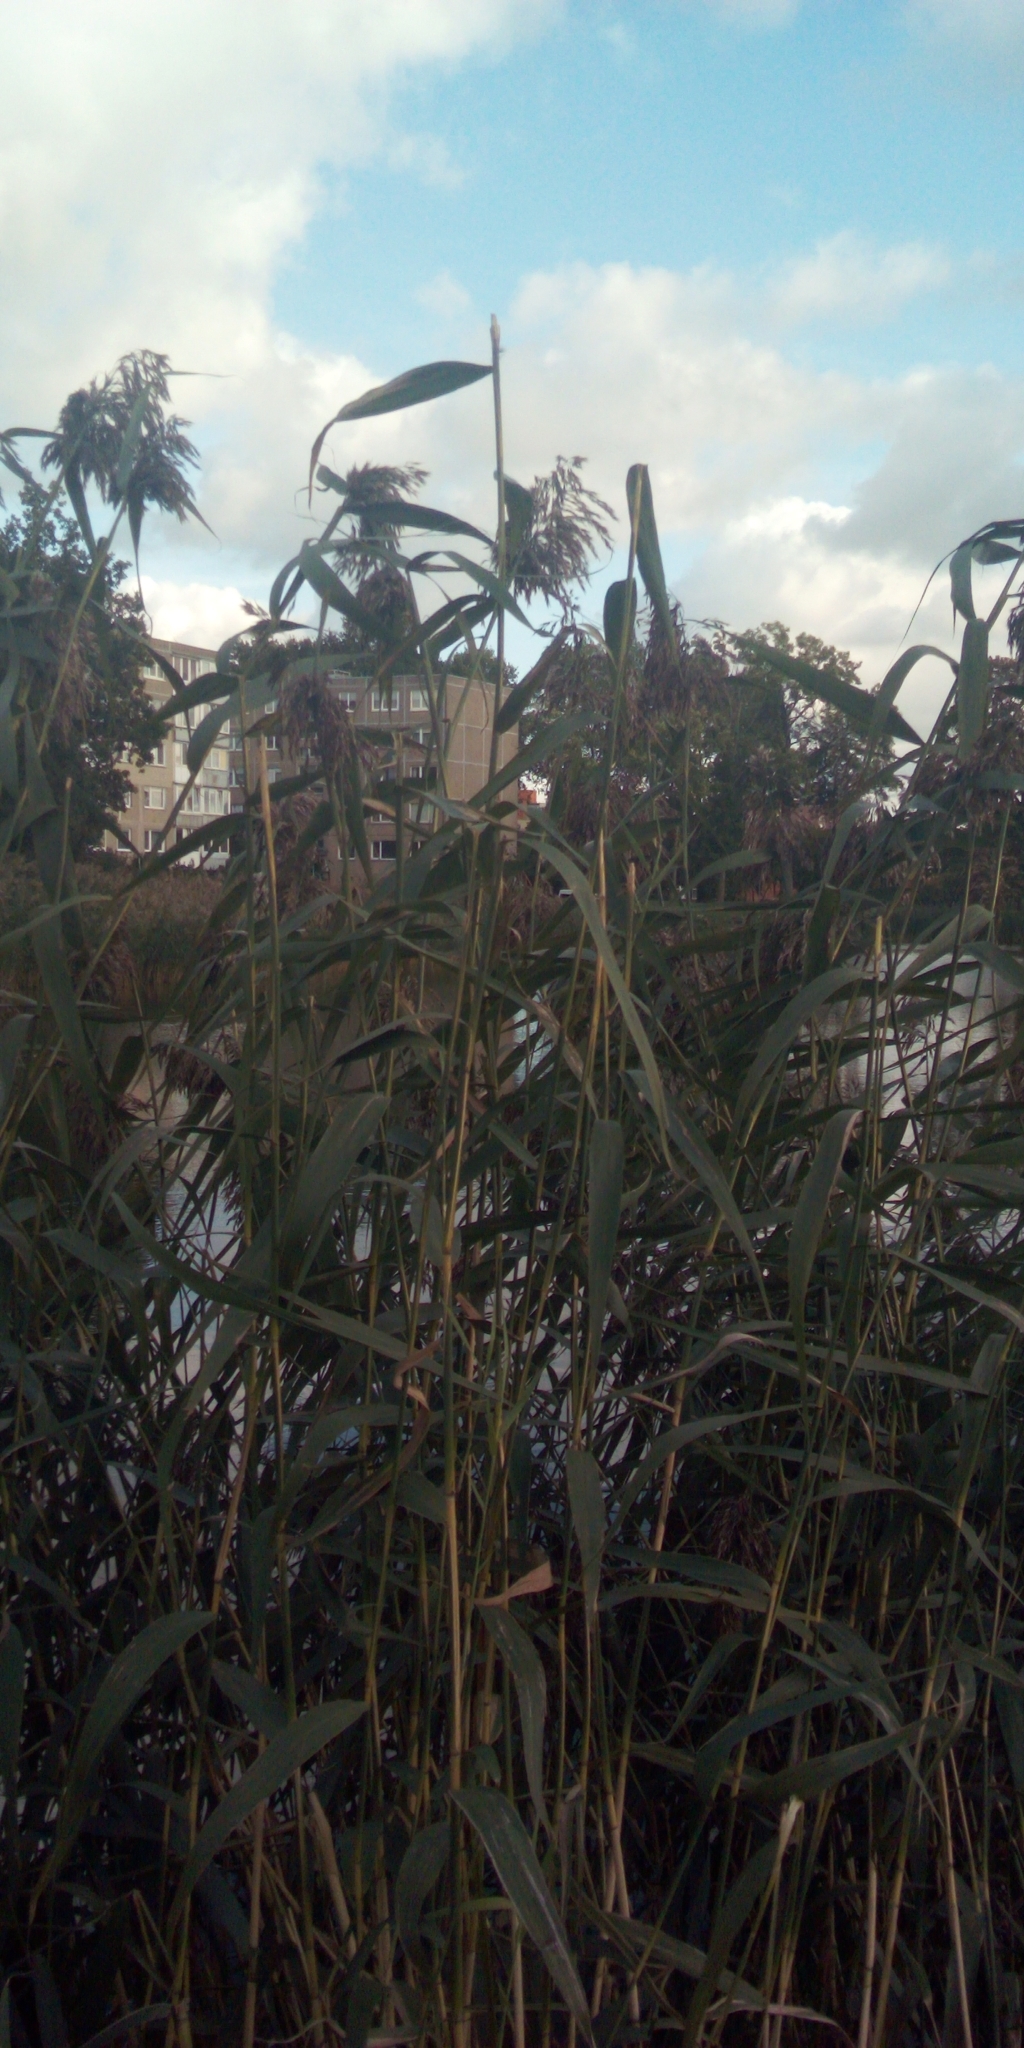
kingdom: Plantae
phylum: Tracheophyta
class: Liliopsida
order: Poales
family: Poaceae
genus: Phragmites
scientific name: Phragmites australis
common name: Common reed
